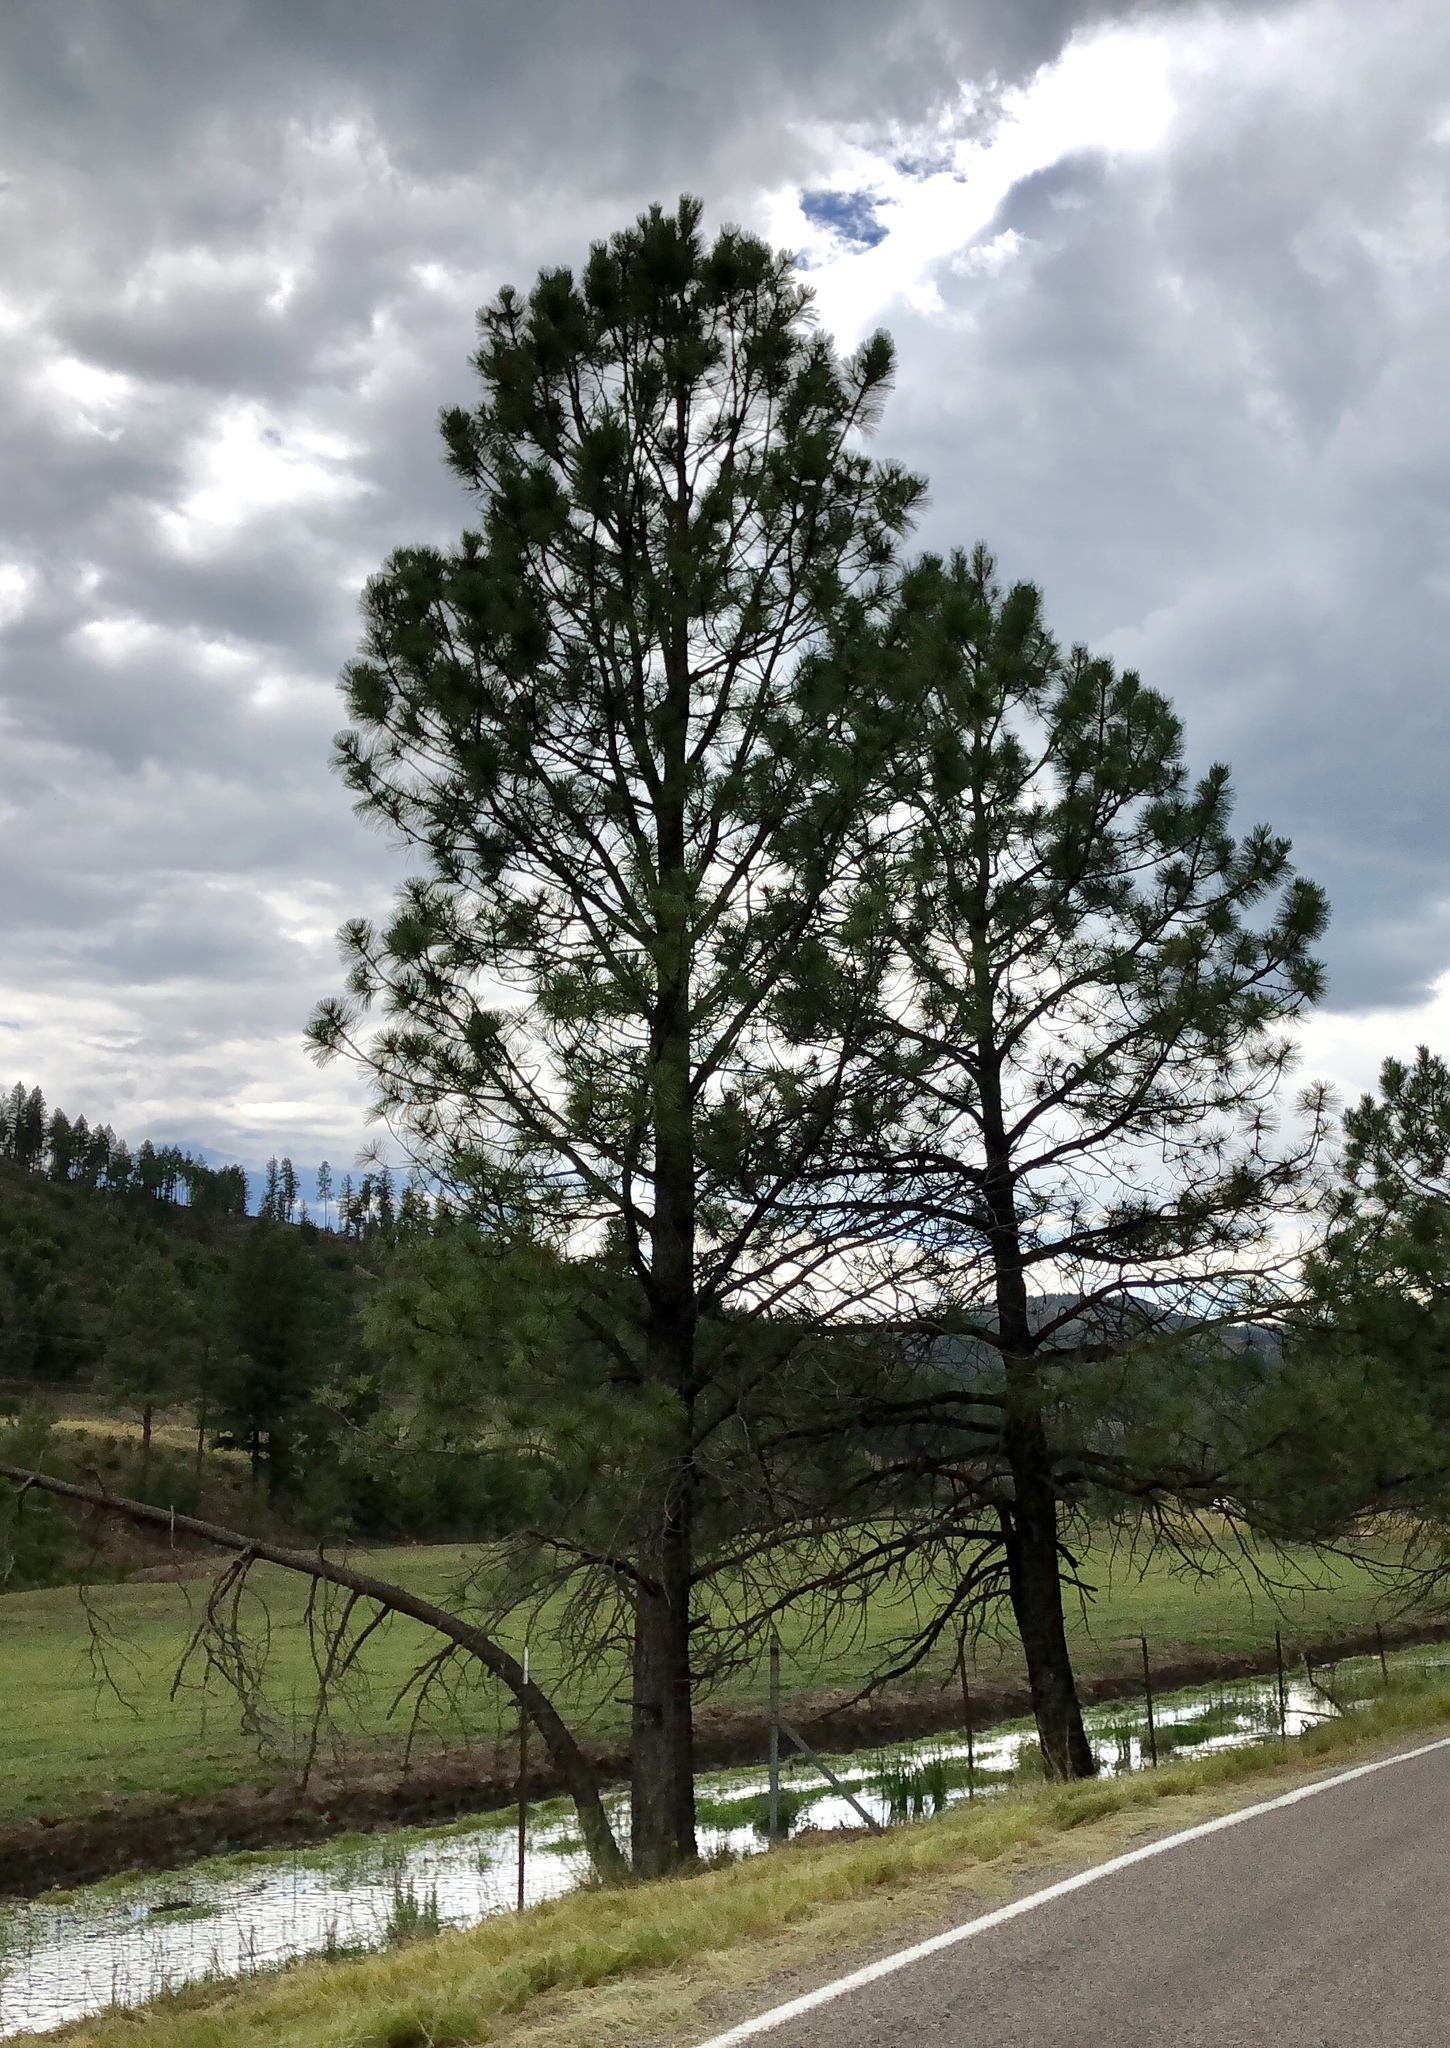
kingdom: Plantae
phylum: Tracheophyta
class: Pinopsida
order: Pinales
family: Pinaceae
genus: Pinus
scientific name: Pinus ponderosa
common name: Western yellow-pine
